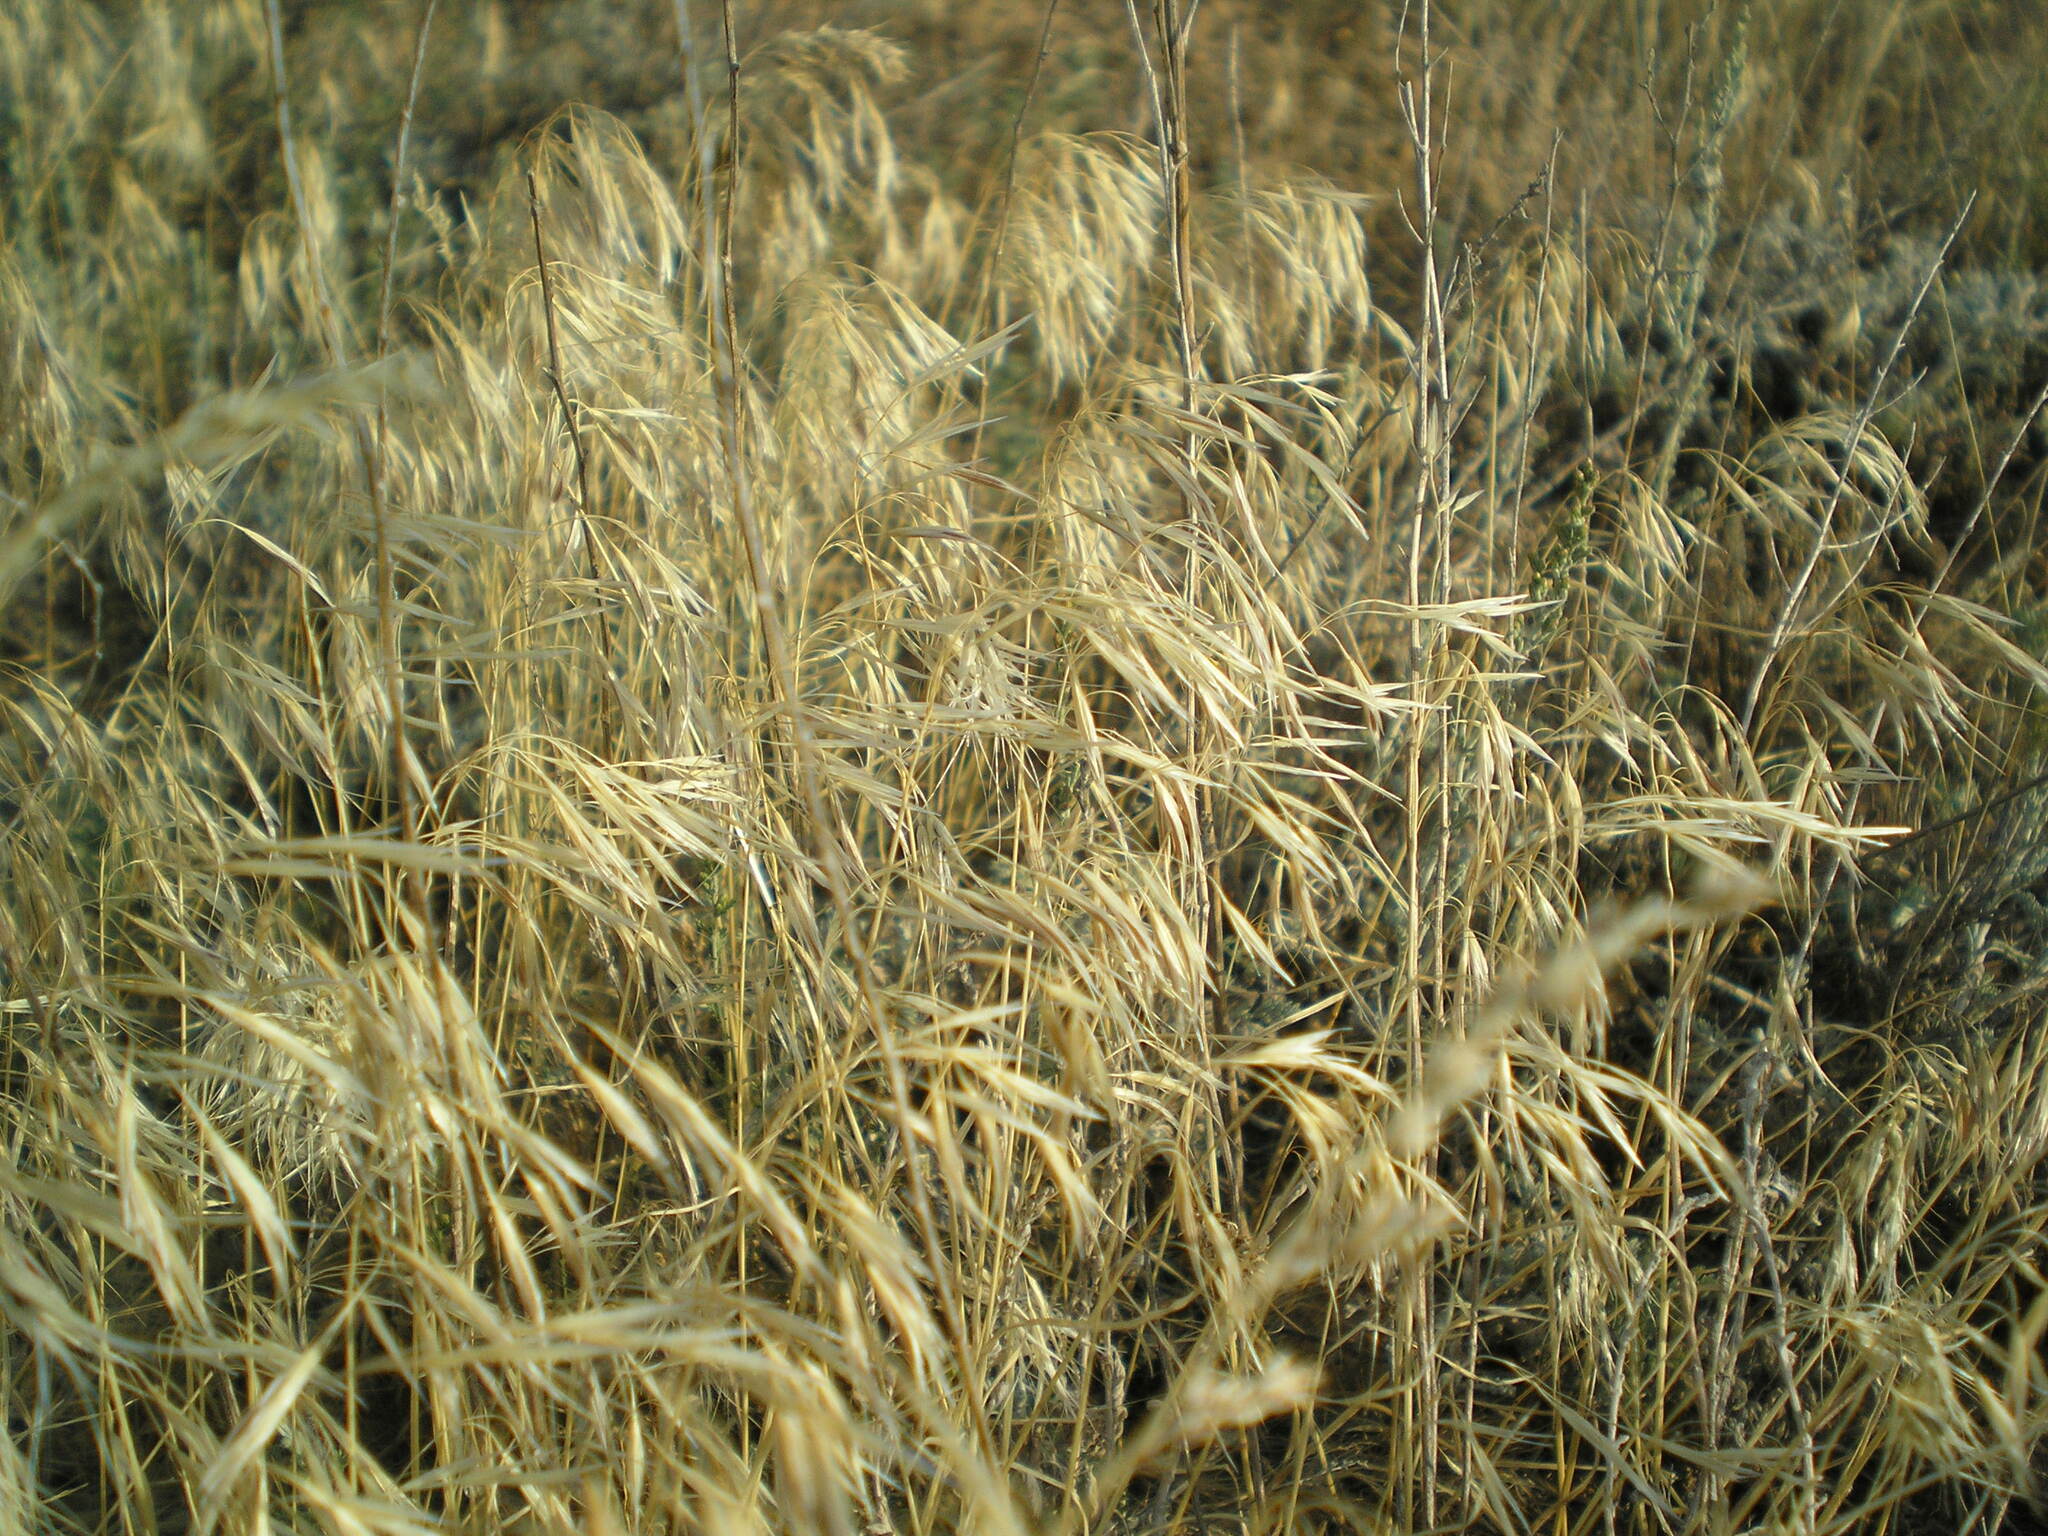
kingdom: Plantae
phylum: Tracheophyta
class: Liliopsida
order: Poales
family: Poaceae
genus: Bromus
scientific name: Bromus tectorum
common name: Cheatgrass
